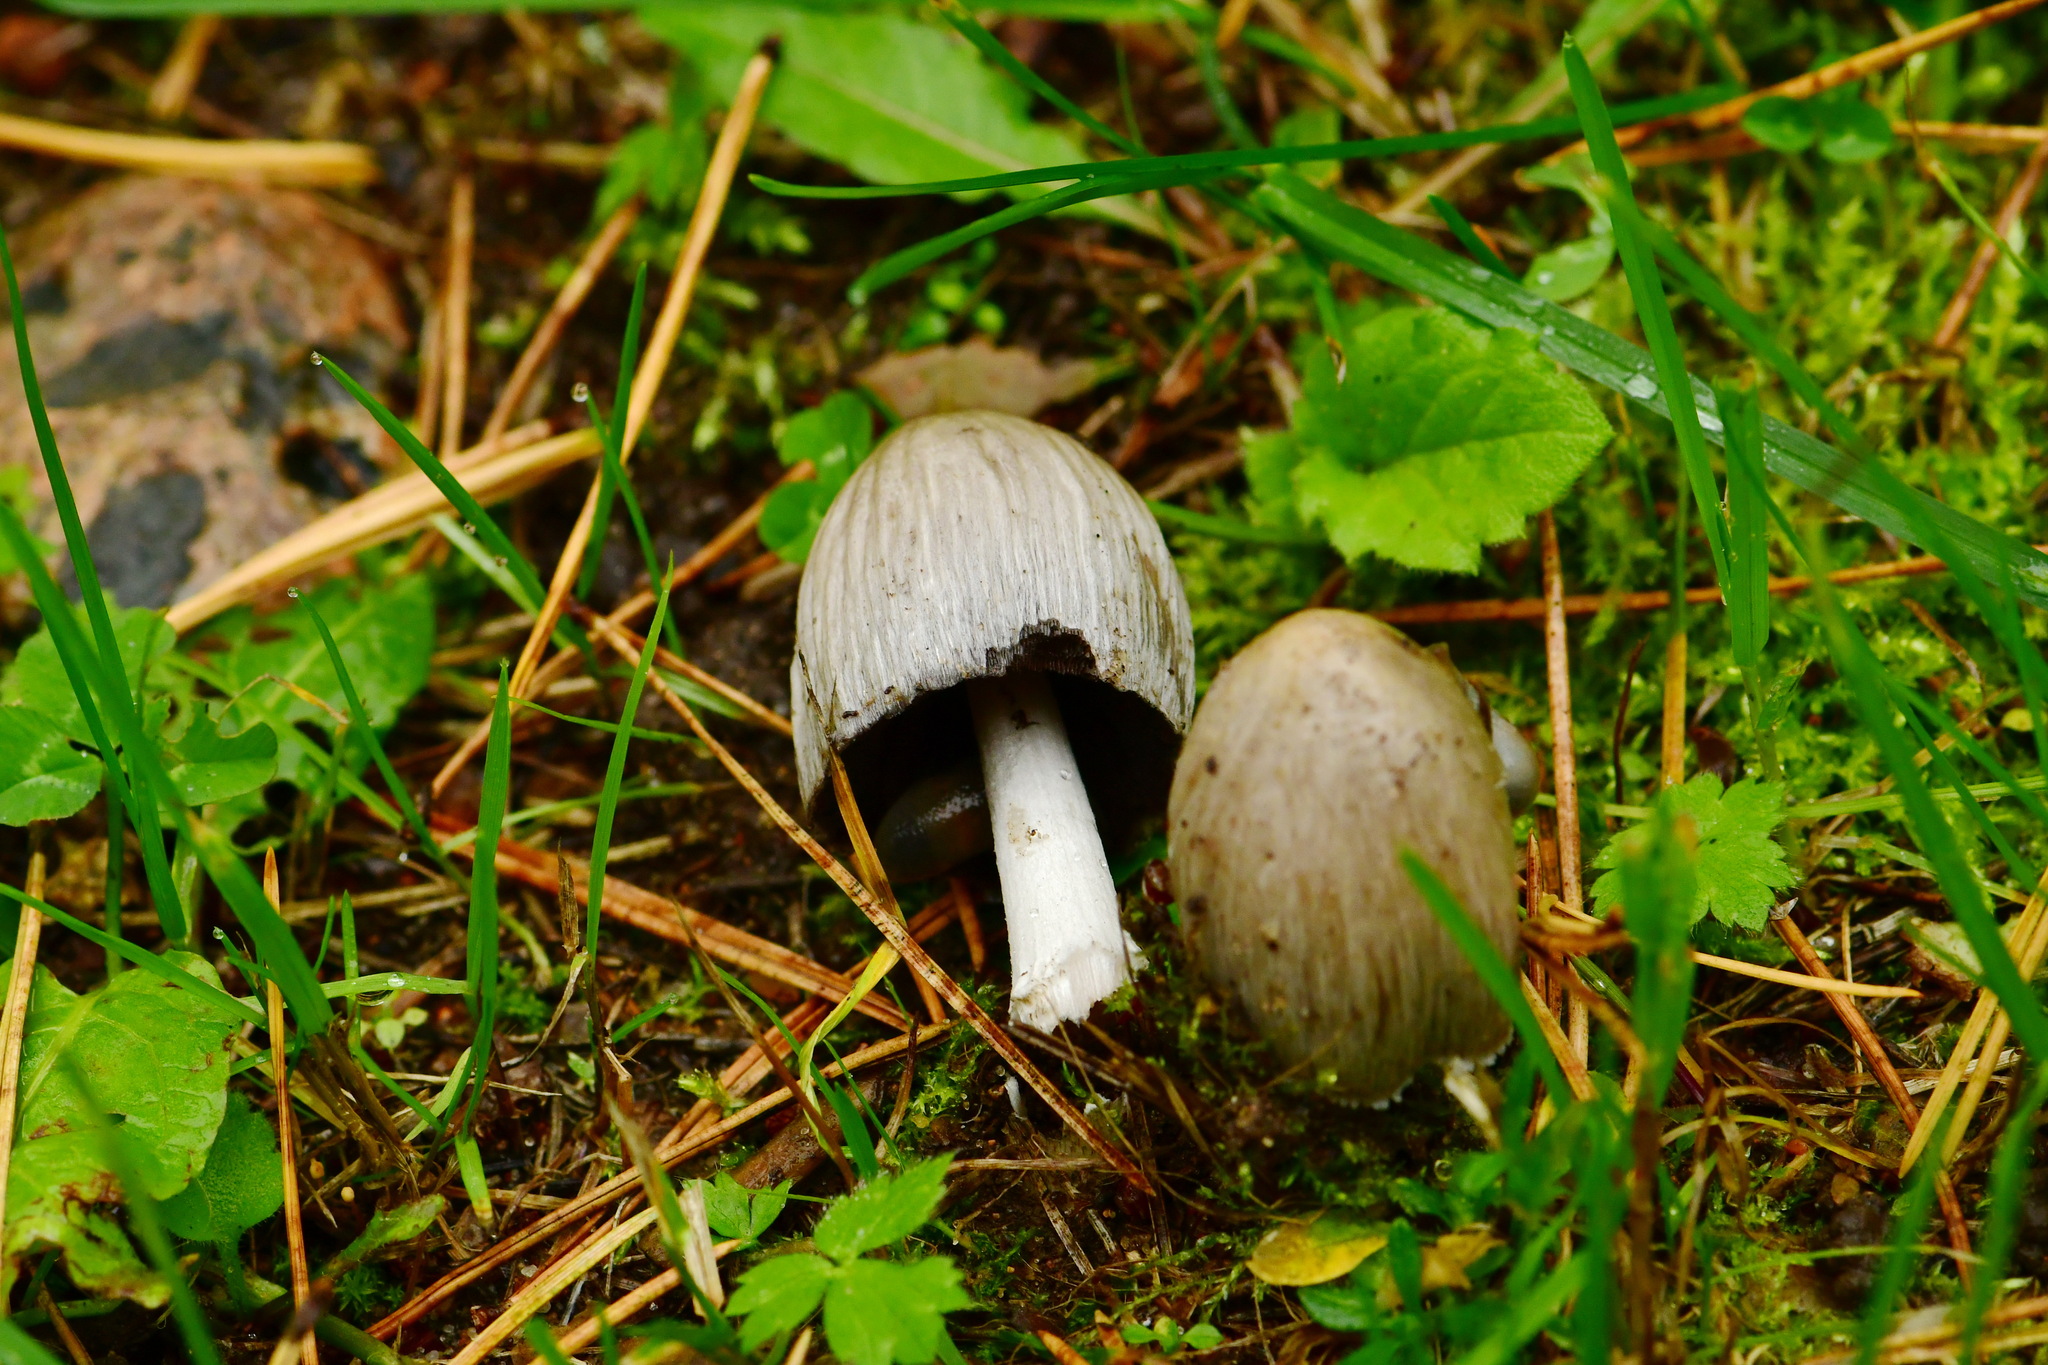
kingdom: Fungi
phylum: Basidiomycota
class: Agaricomycetes
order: Agaricales
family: Psathyrellaceae
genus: Coprinopsis
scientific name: Coprinopsis atramentaria
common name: Common ink-cap
